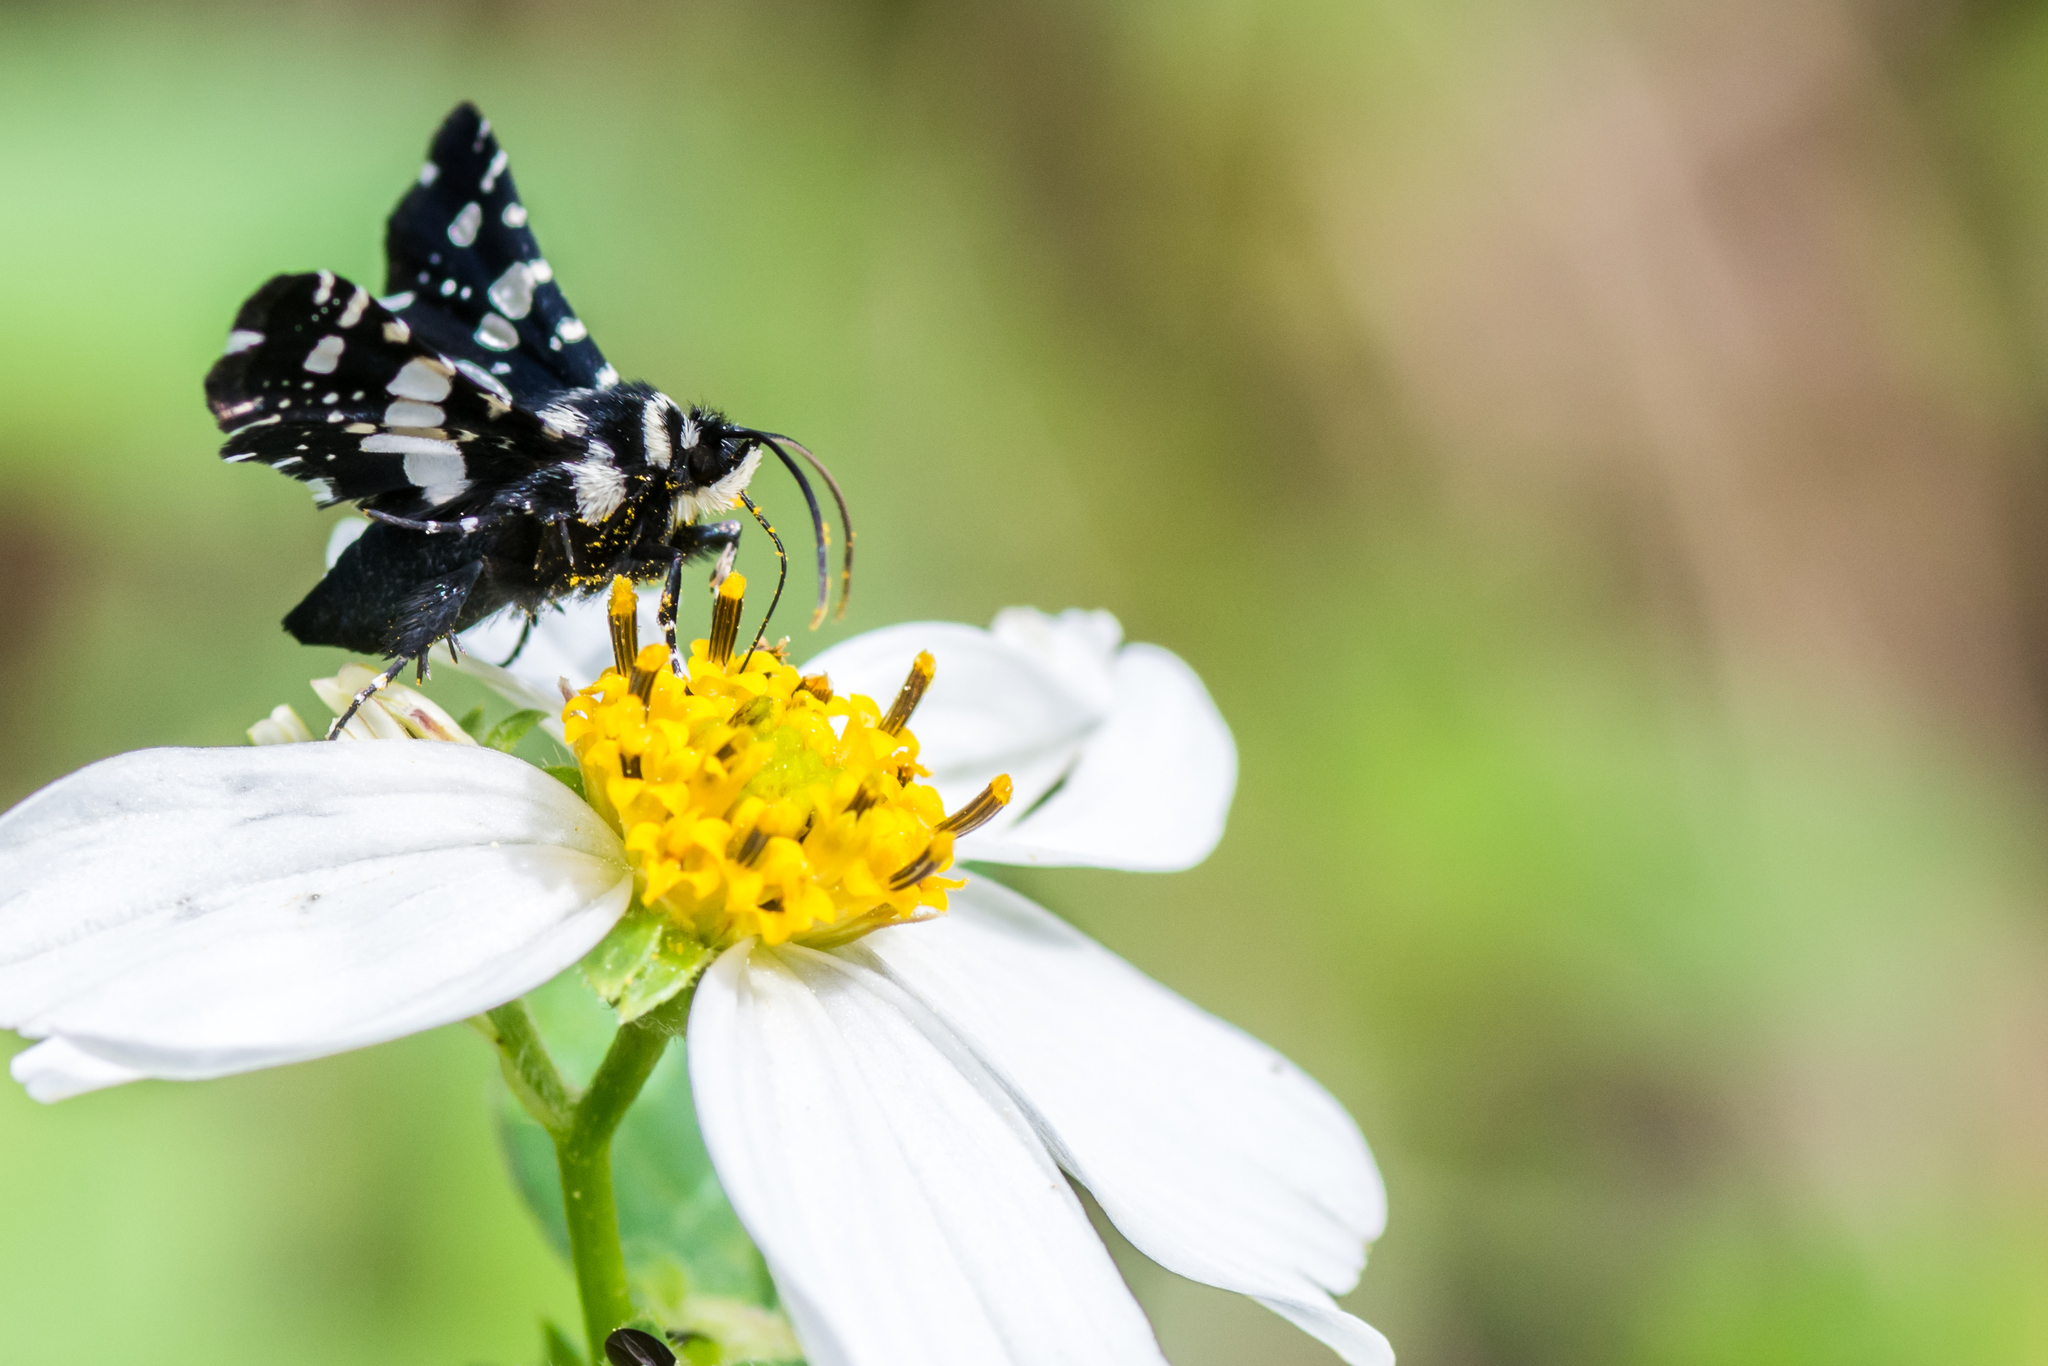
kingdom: Animalia
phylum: Arthropoda
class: Insecta
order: Lepidoptera
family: Thyrididae
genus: Pseudothyris
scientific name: Pseudothyris sepulchralis
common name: Mournful thyris moth
